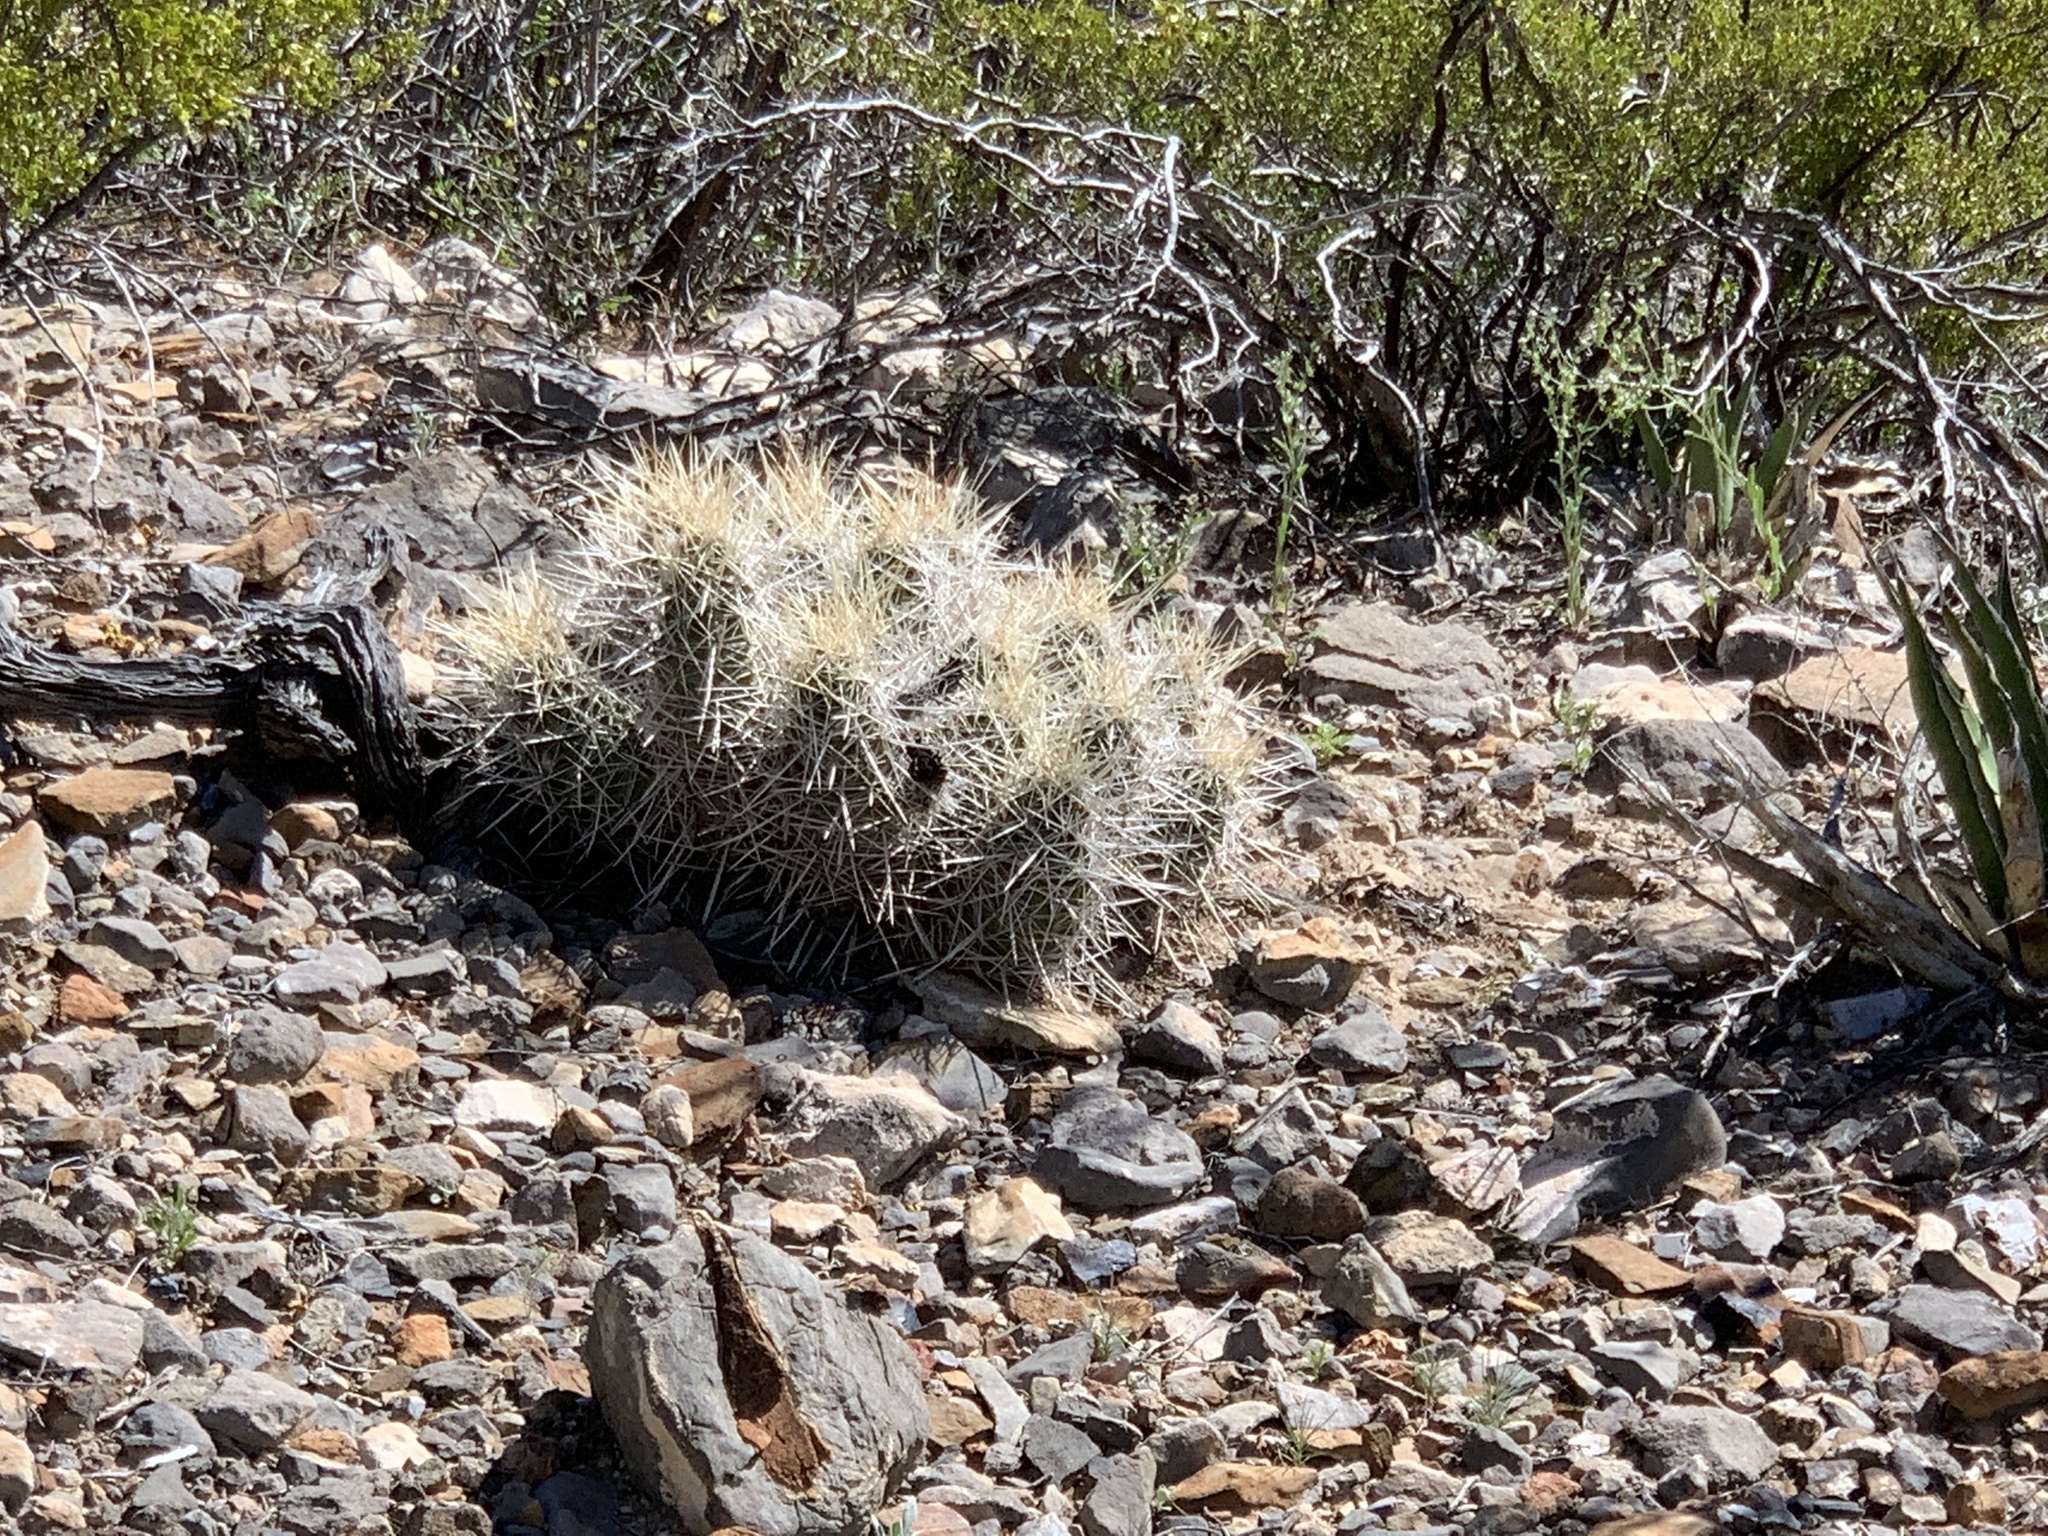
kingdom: Plantae
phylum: Tracheophyta
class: Magnoliopsida
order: Caryophyllales
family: Cactaceae
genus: Echinocereus
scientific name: Echinocereus stramineus
